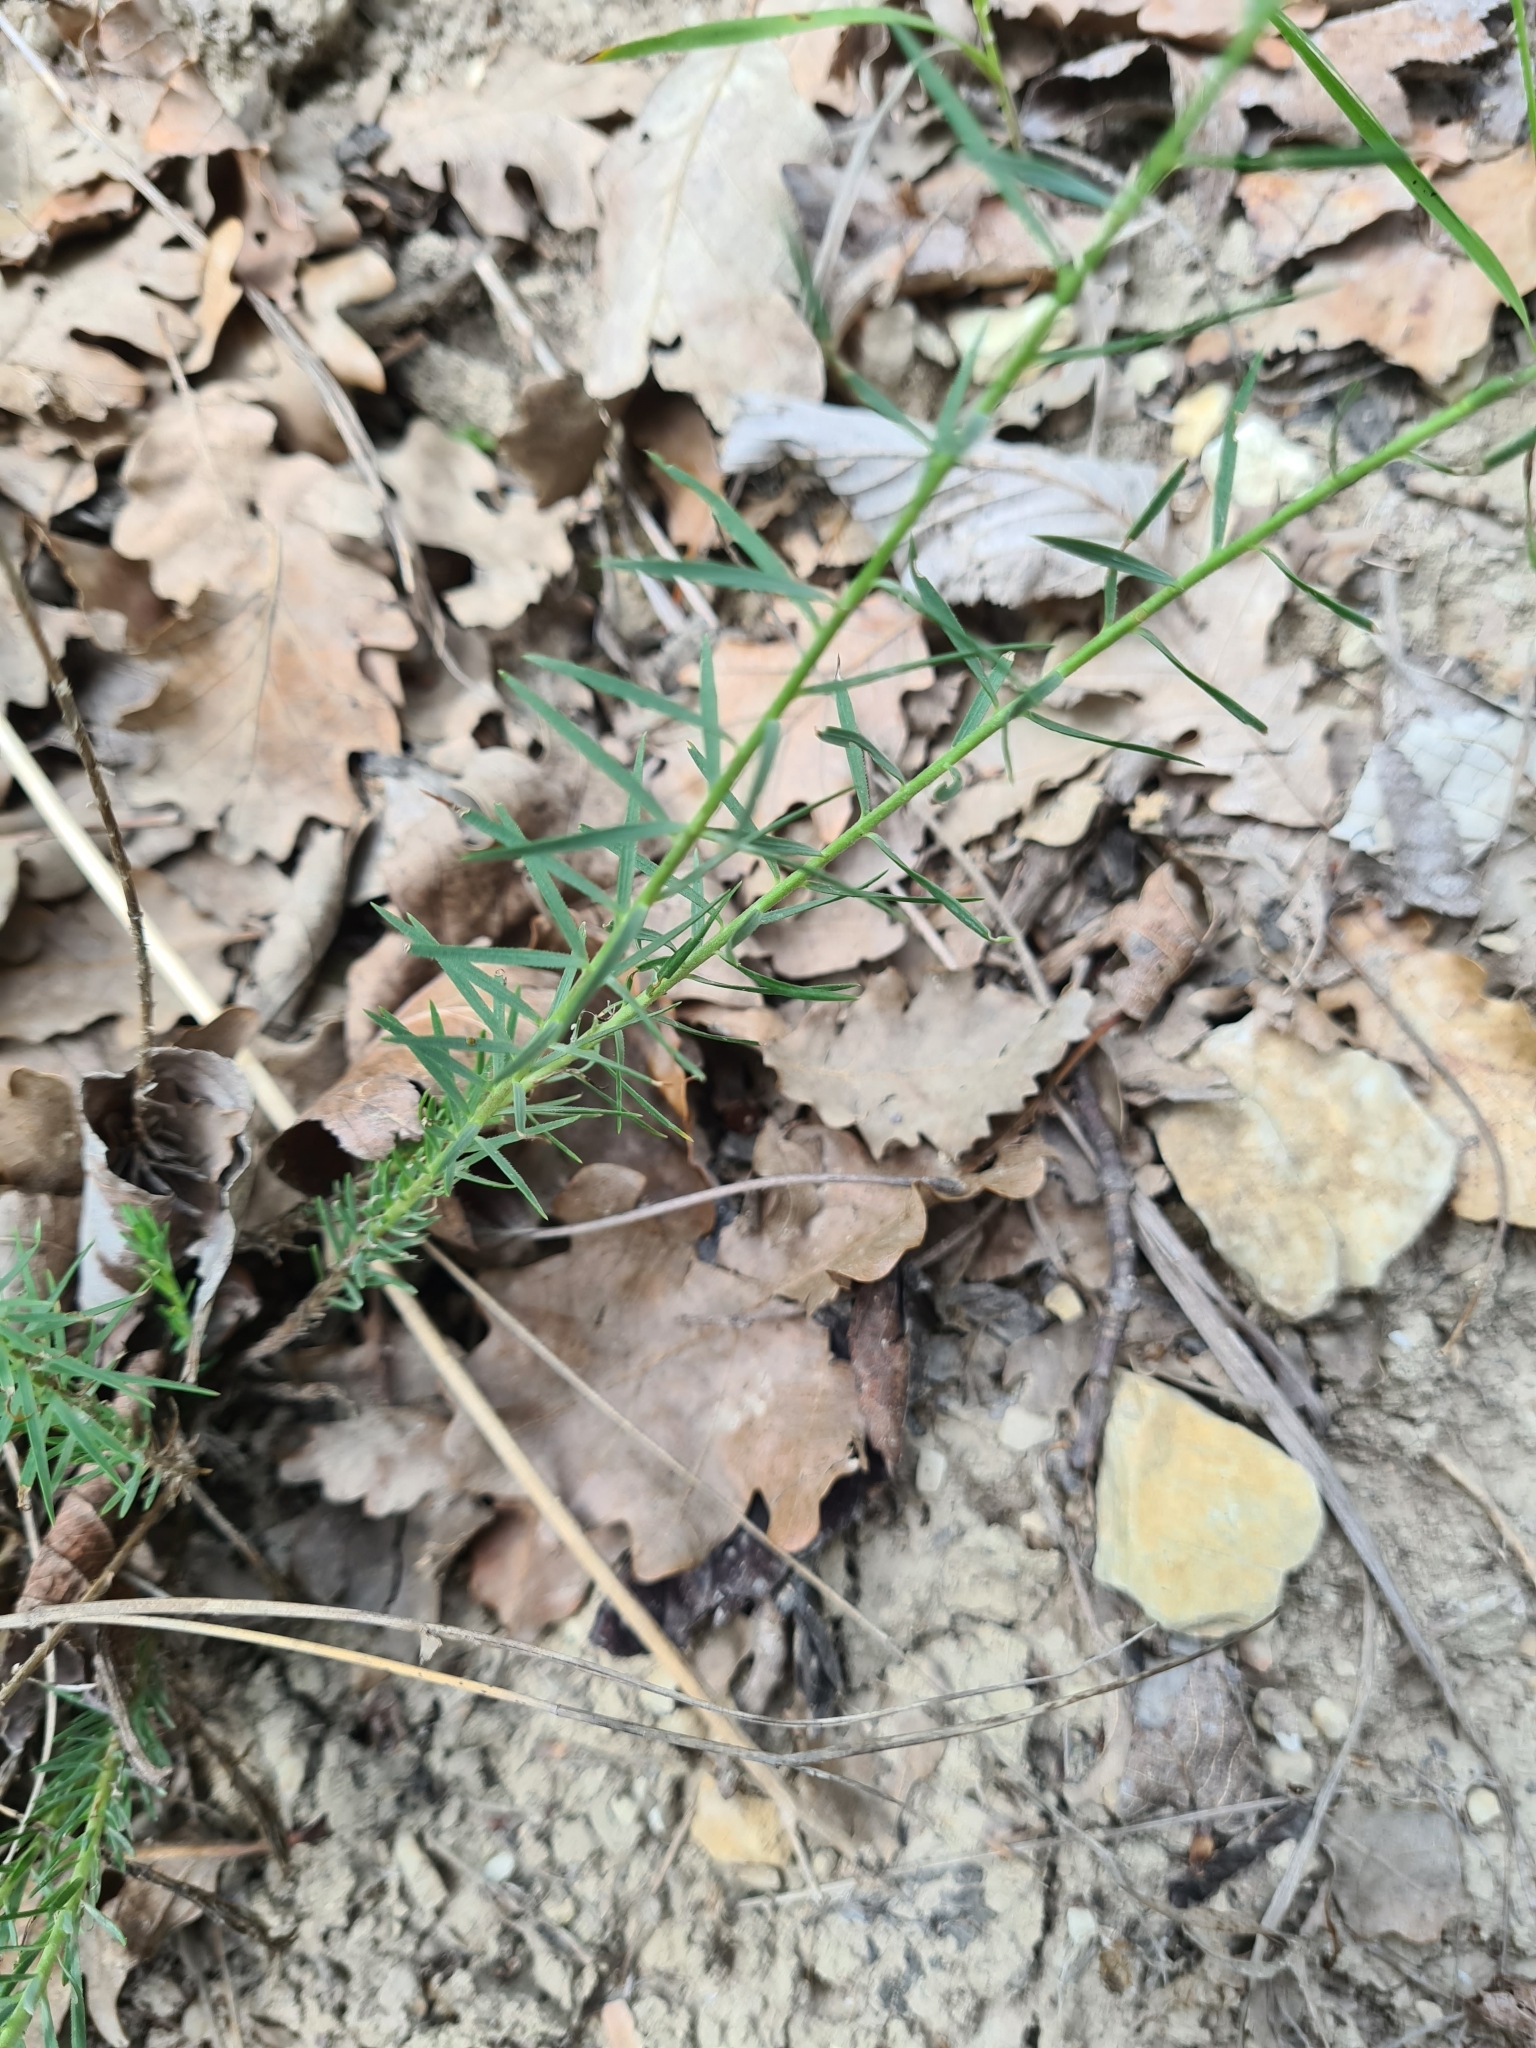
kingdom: Plantae
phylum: Tracheophyta
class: Magnoliopsida
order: Malpighiales
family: Linaceae
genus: Linum
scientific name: Linum tenuifolium
